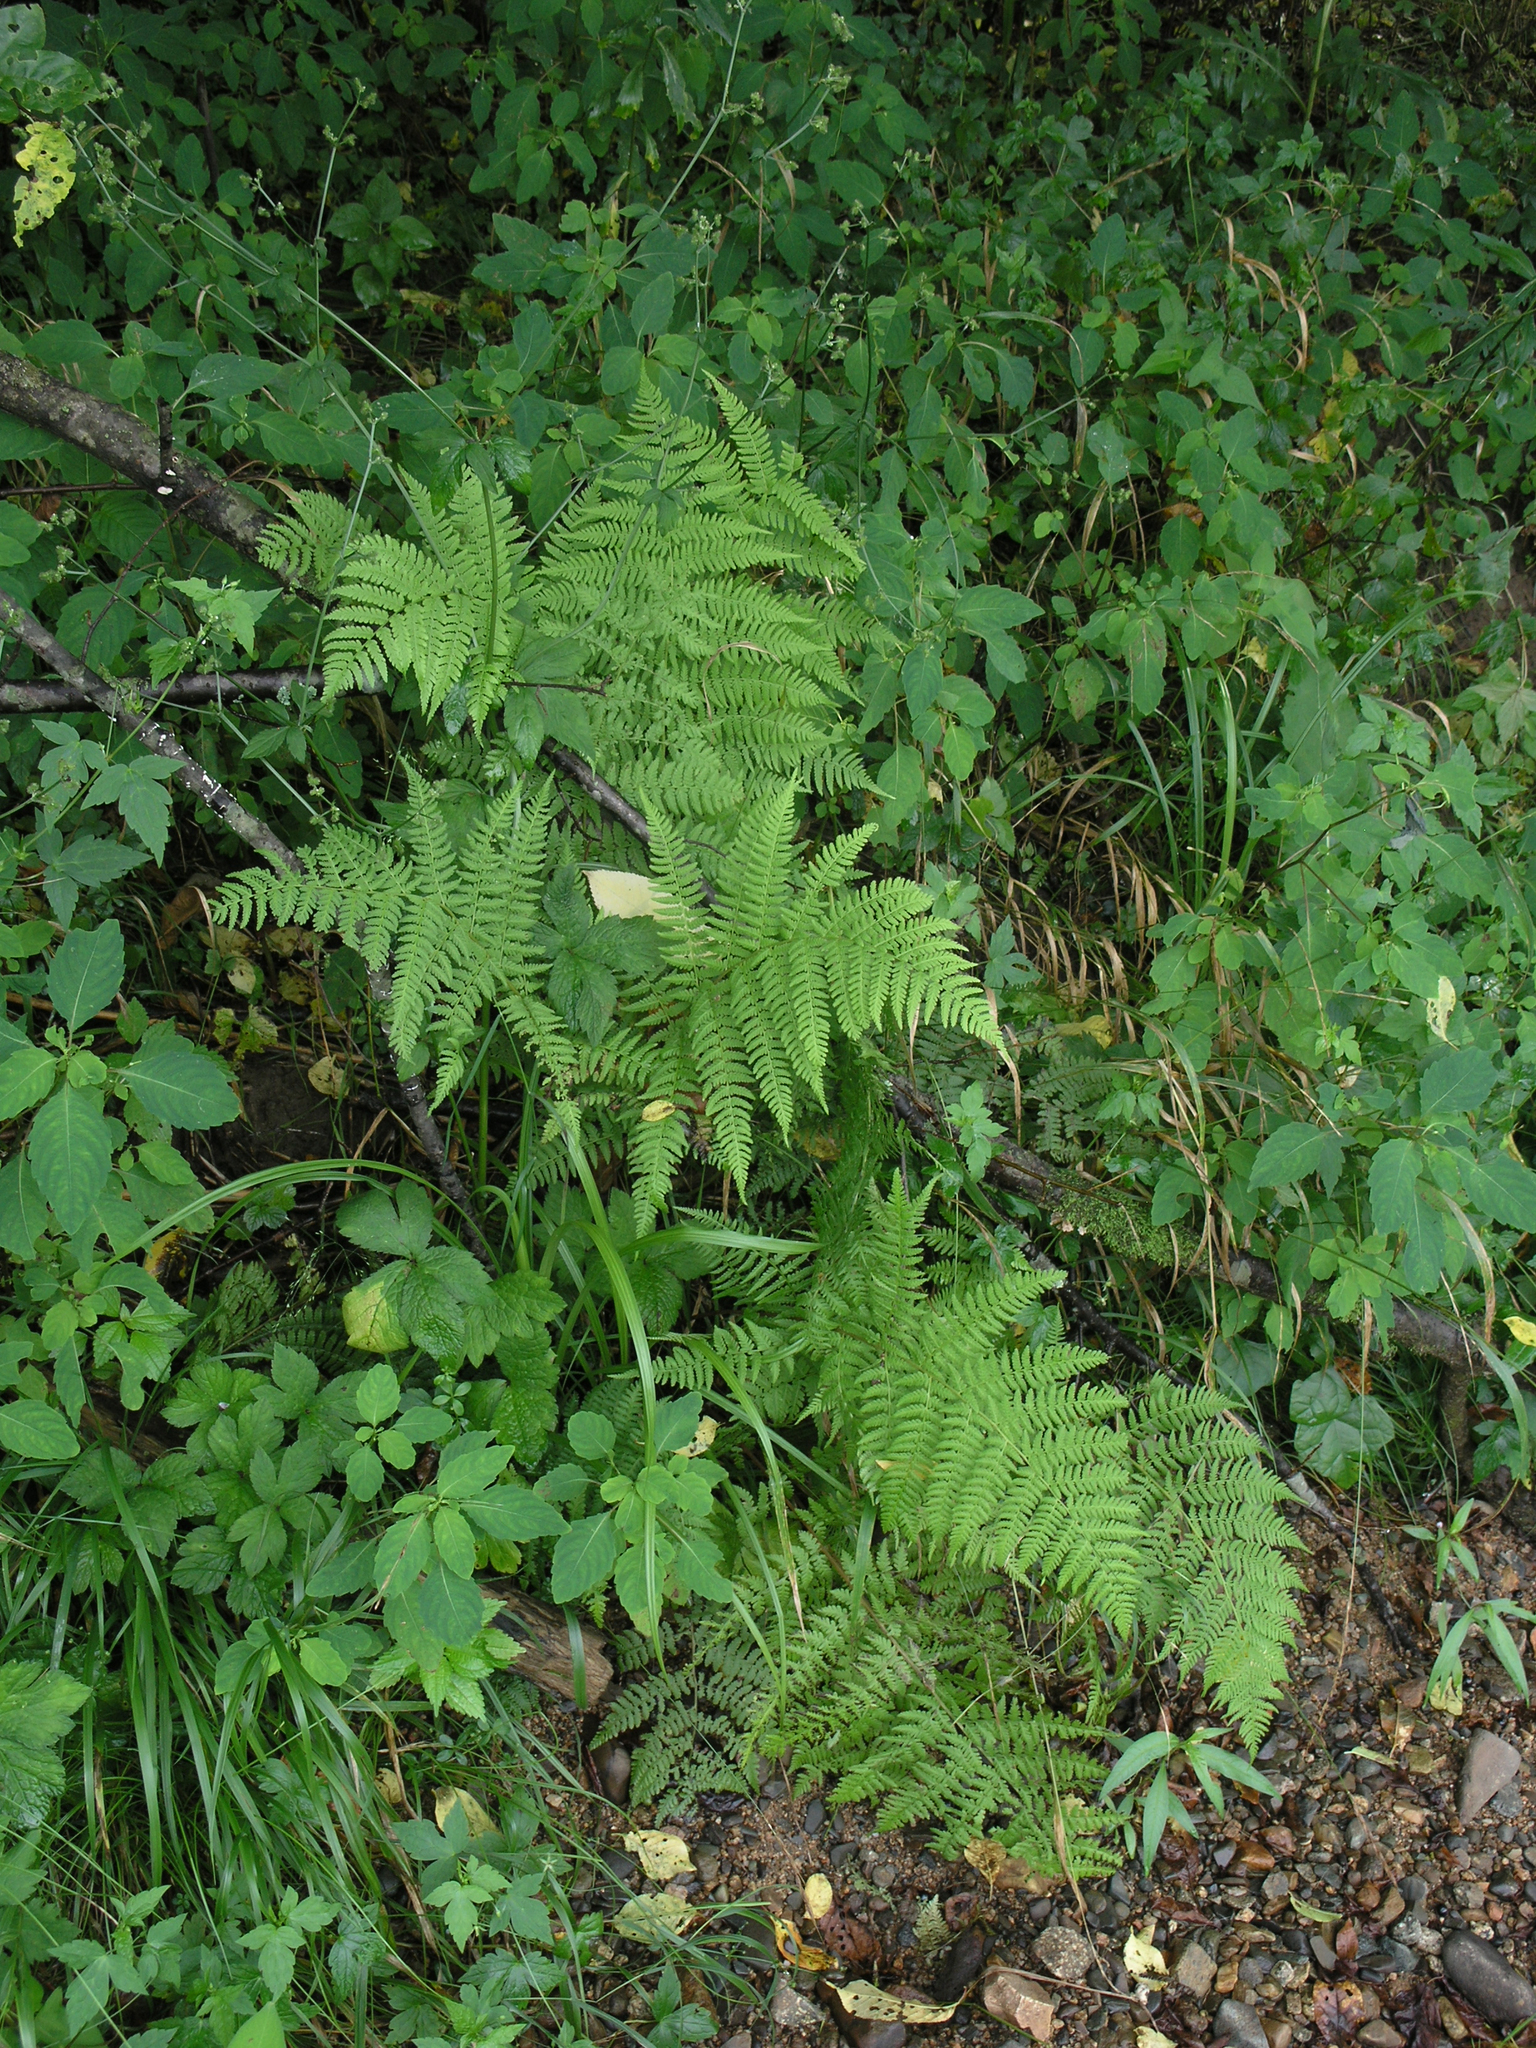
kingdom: Plantae
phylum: Tracheophyta
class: Polypodiopsida
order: Polypodiales
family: Athyriaceae
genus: Athyrium
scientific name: Athyrium filix-femina
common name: Lady fern
